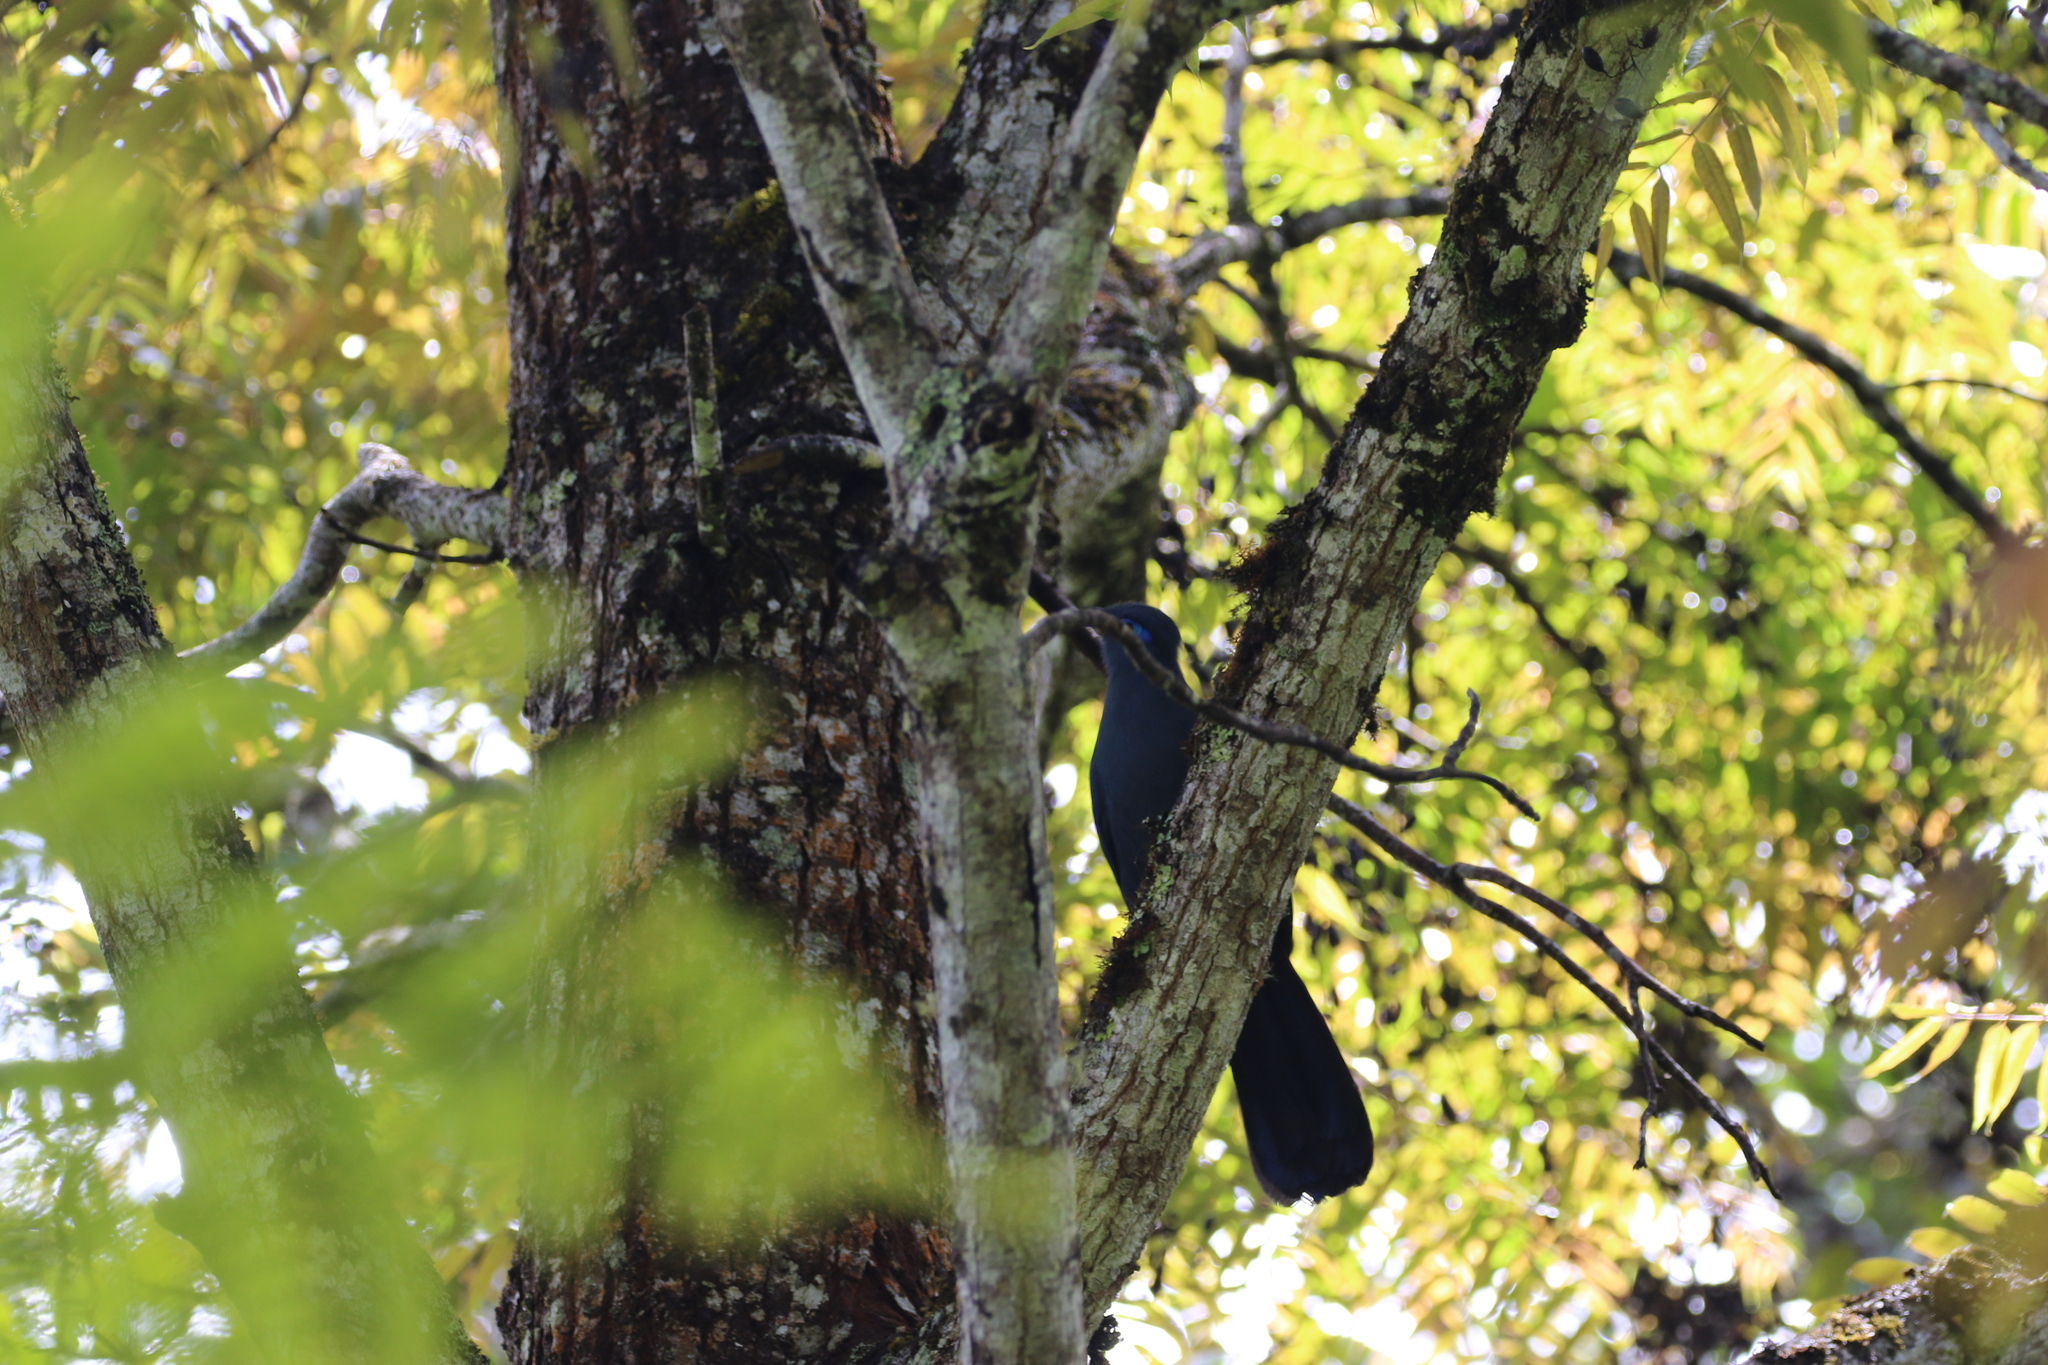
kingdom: Animalia
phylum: Chordata
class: Aves
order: Cuculiformes
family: Cuculidae
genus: Coua
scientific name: Coua caerulea
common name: Blue coua
